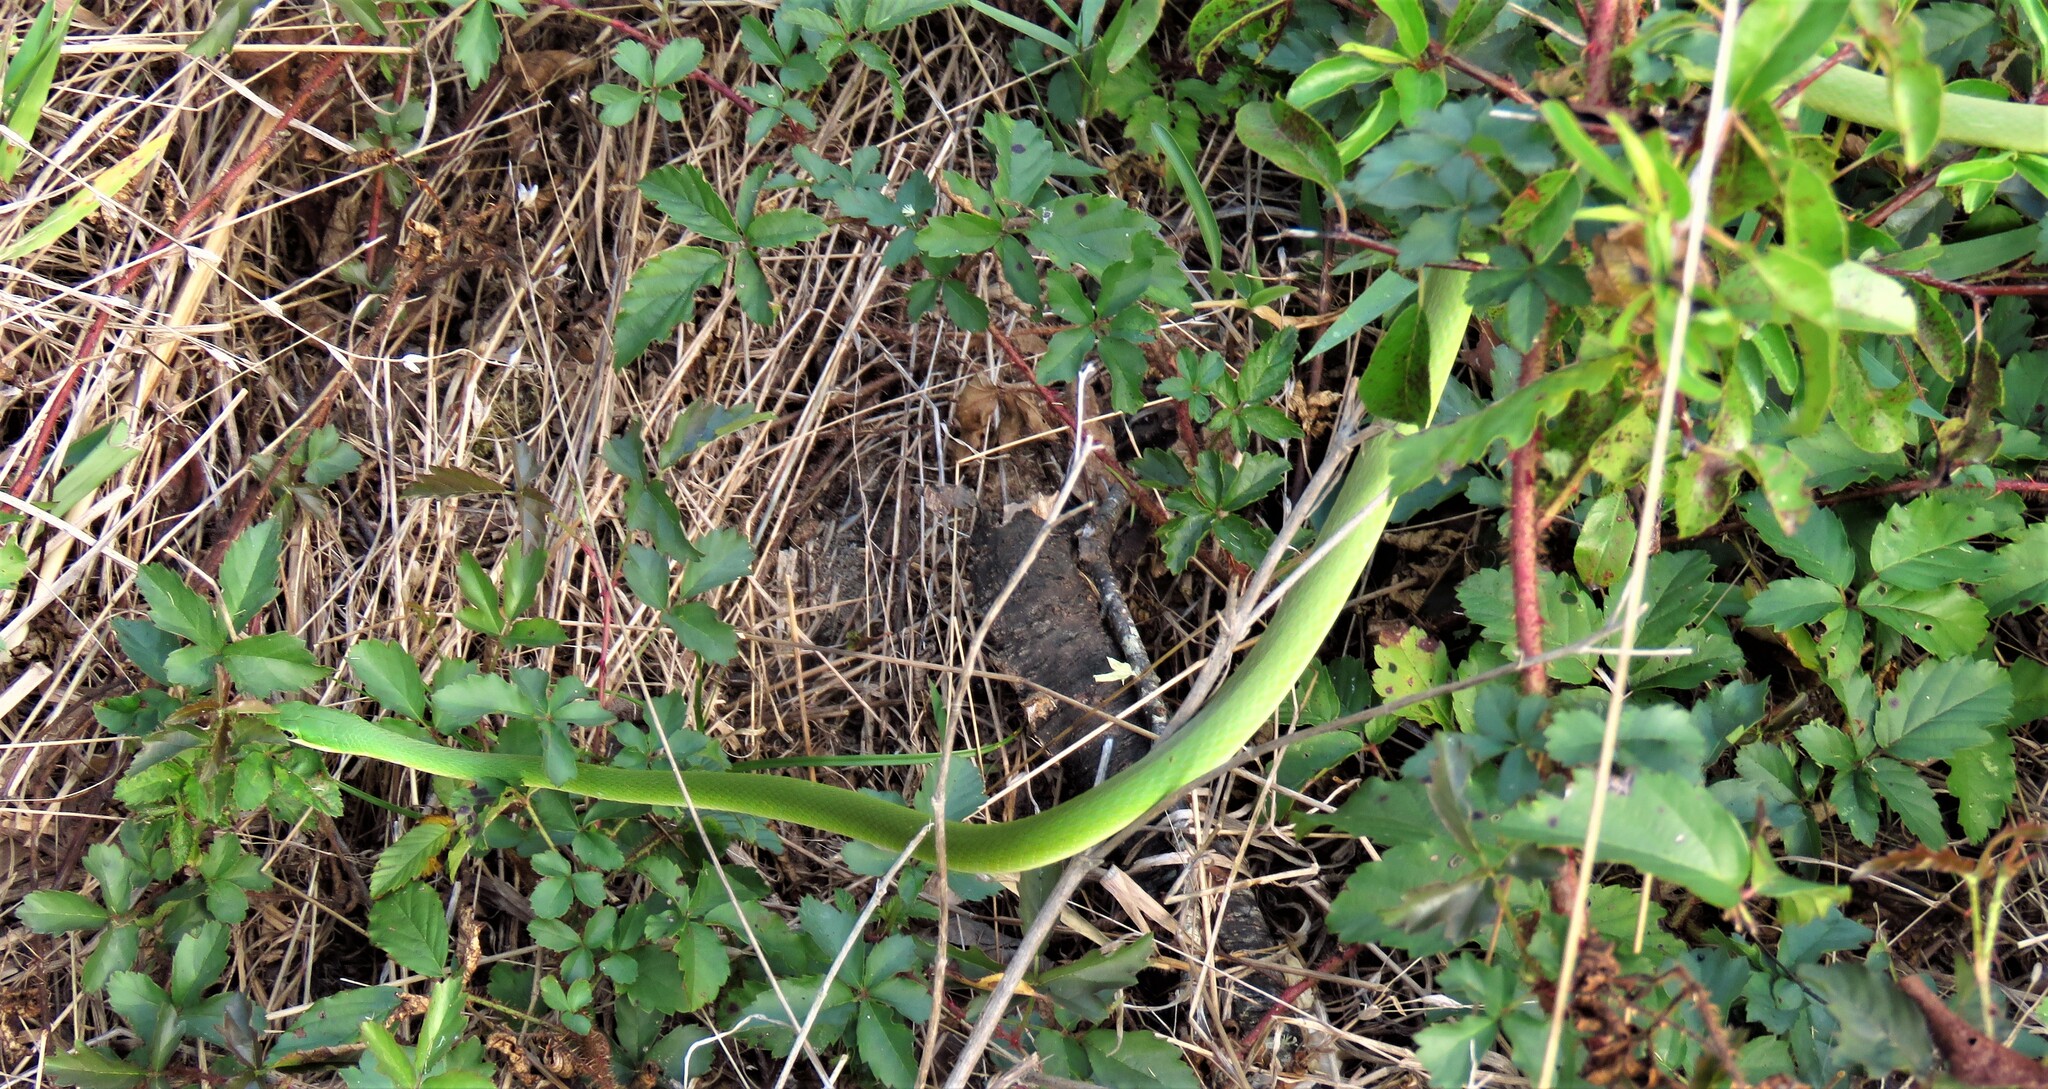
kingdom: Animalia
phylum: Chordata
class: Squamata
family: Colubridae
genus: Opheodrys
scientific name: Opheodrys aestivus
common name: Rough greensnake
